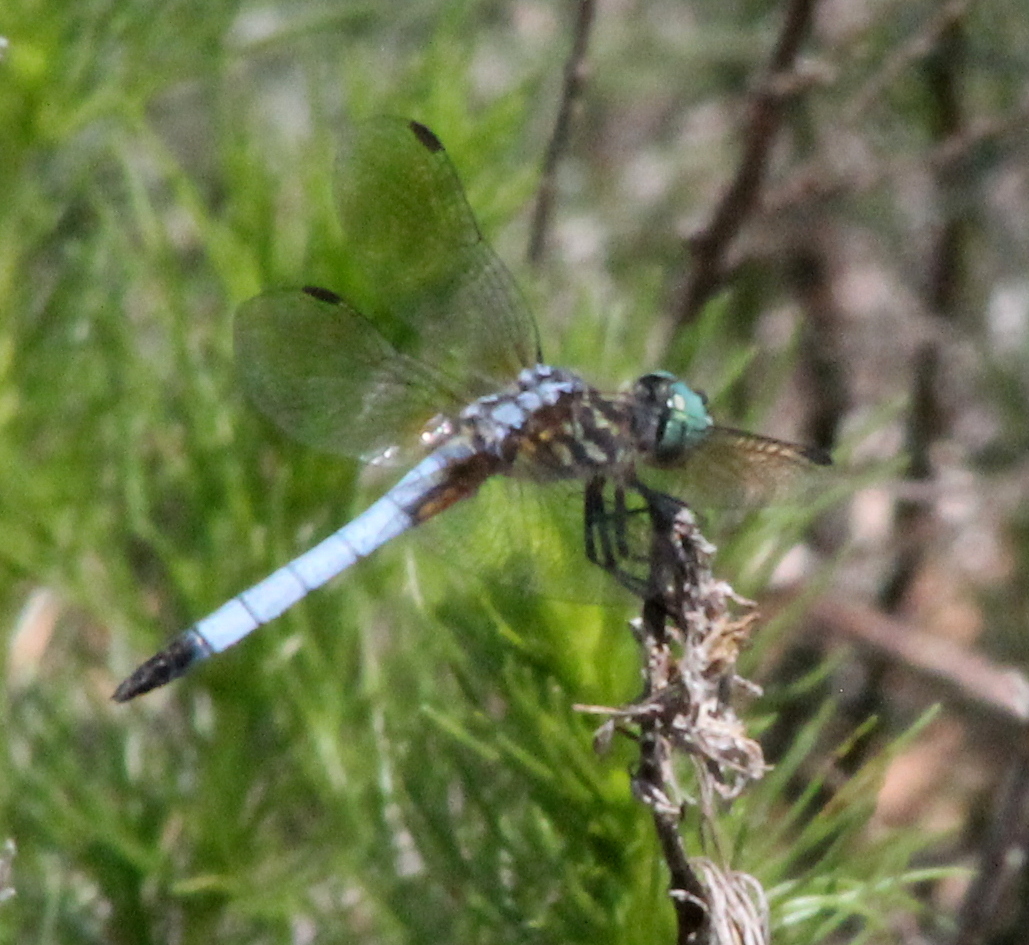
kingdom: Animalia
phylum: Arthropoda
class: Insecta
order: Odonata
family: Libellulidae
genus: Pachydiplax
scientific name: Pachydiplax longipennis
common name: Blue dasher
